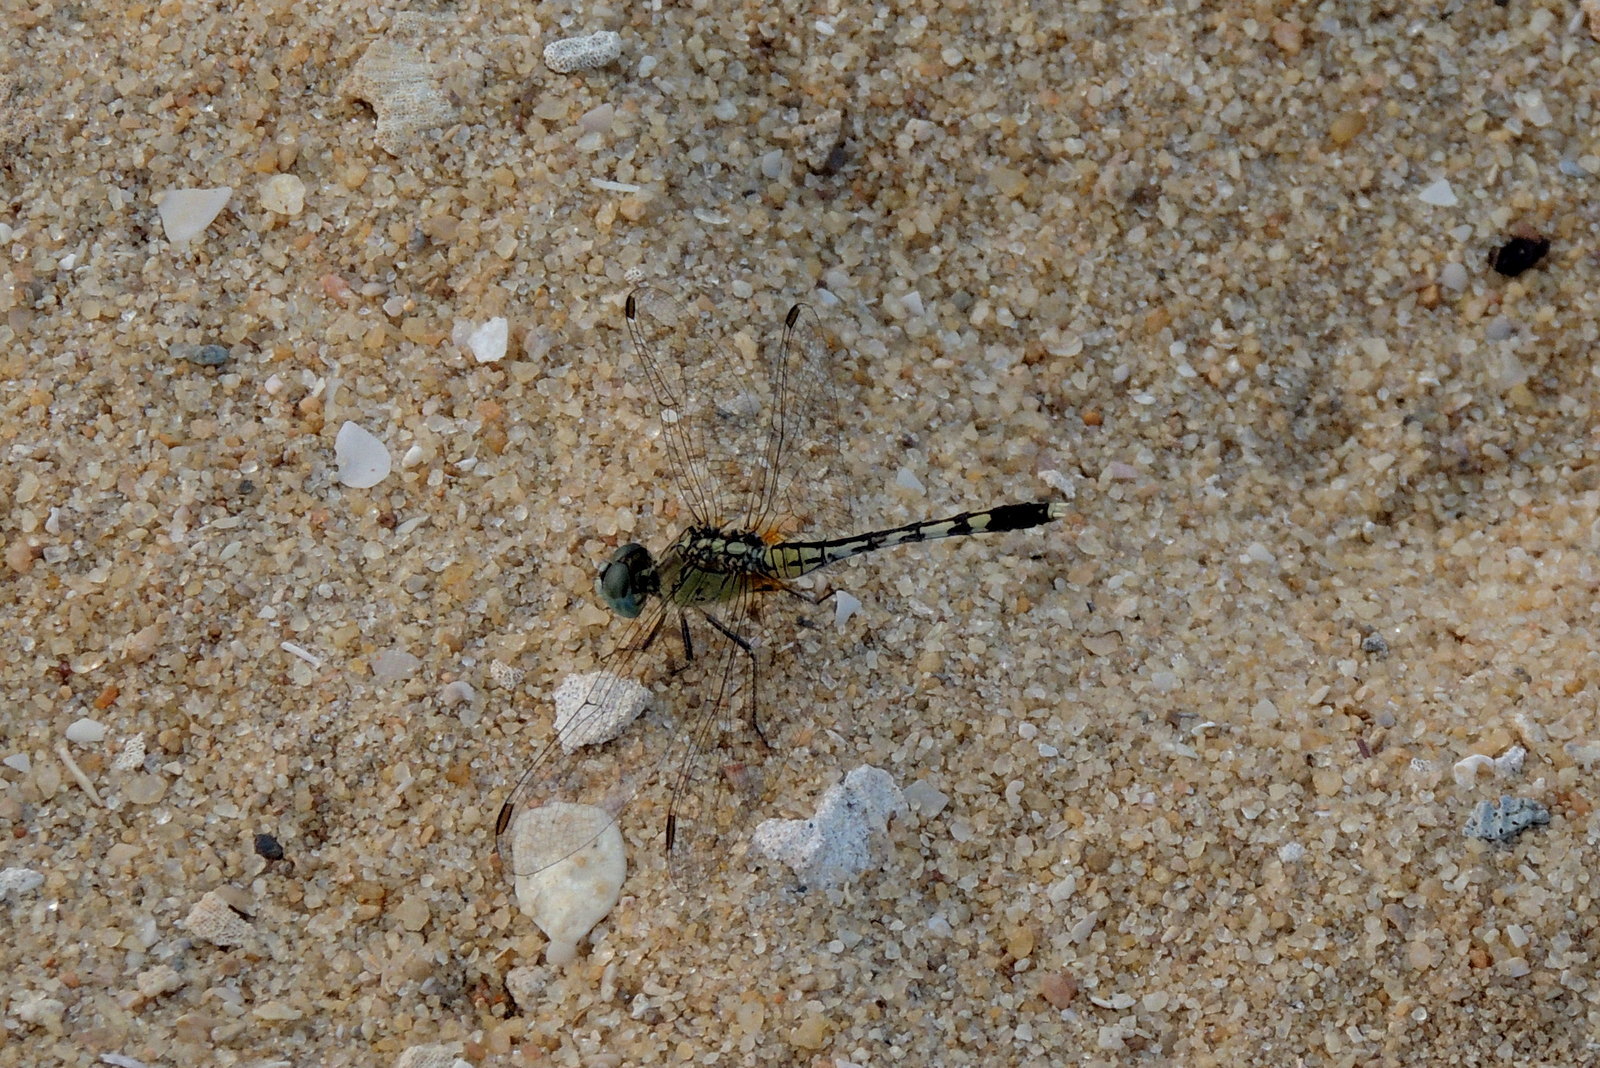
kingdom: Animalia
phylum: Arthropoda
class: Insecta
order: Odonata
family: Libellulidae
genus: Diplacodes
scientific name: Diplacodes trivialis
